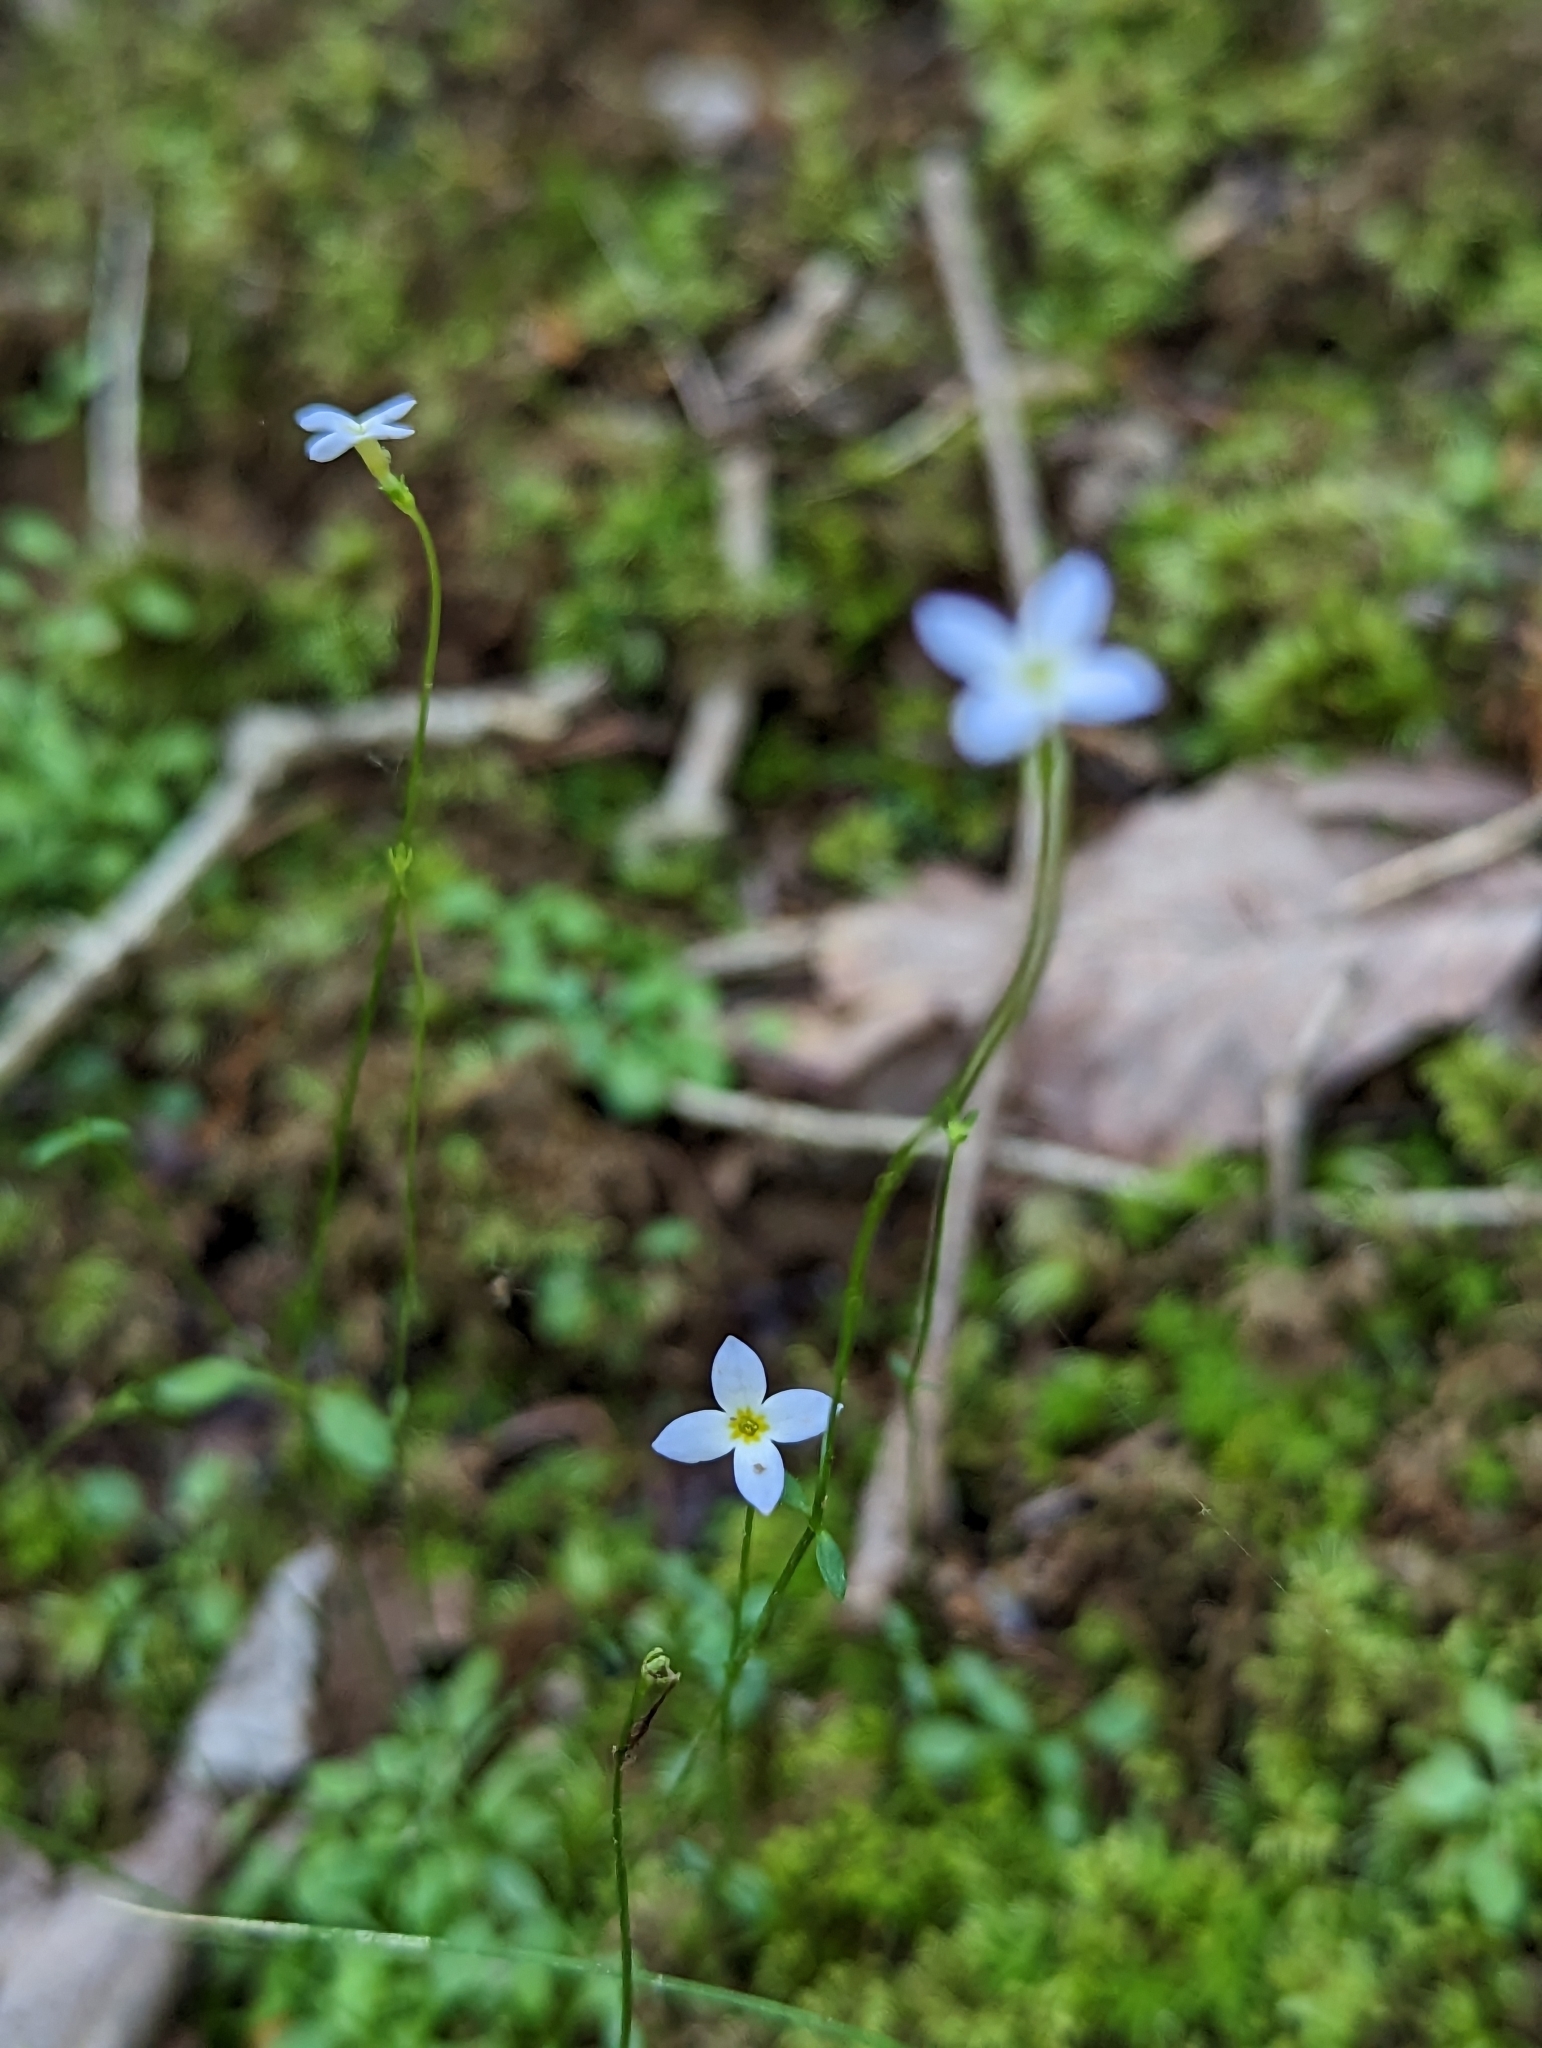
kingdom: Plantae
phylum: Tracheophyta
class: Magnoliopsida
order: Gentianales
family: Rubiaceae
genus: Houstonia
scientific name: Houstonia serpyllifolia
